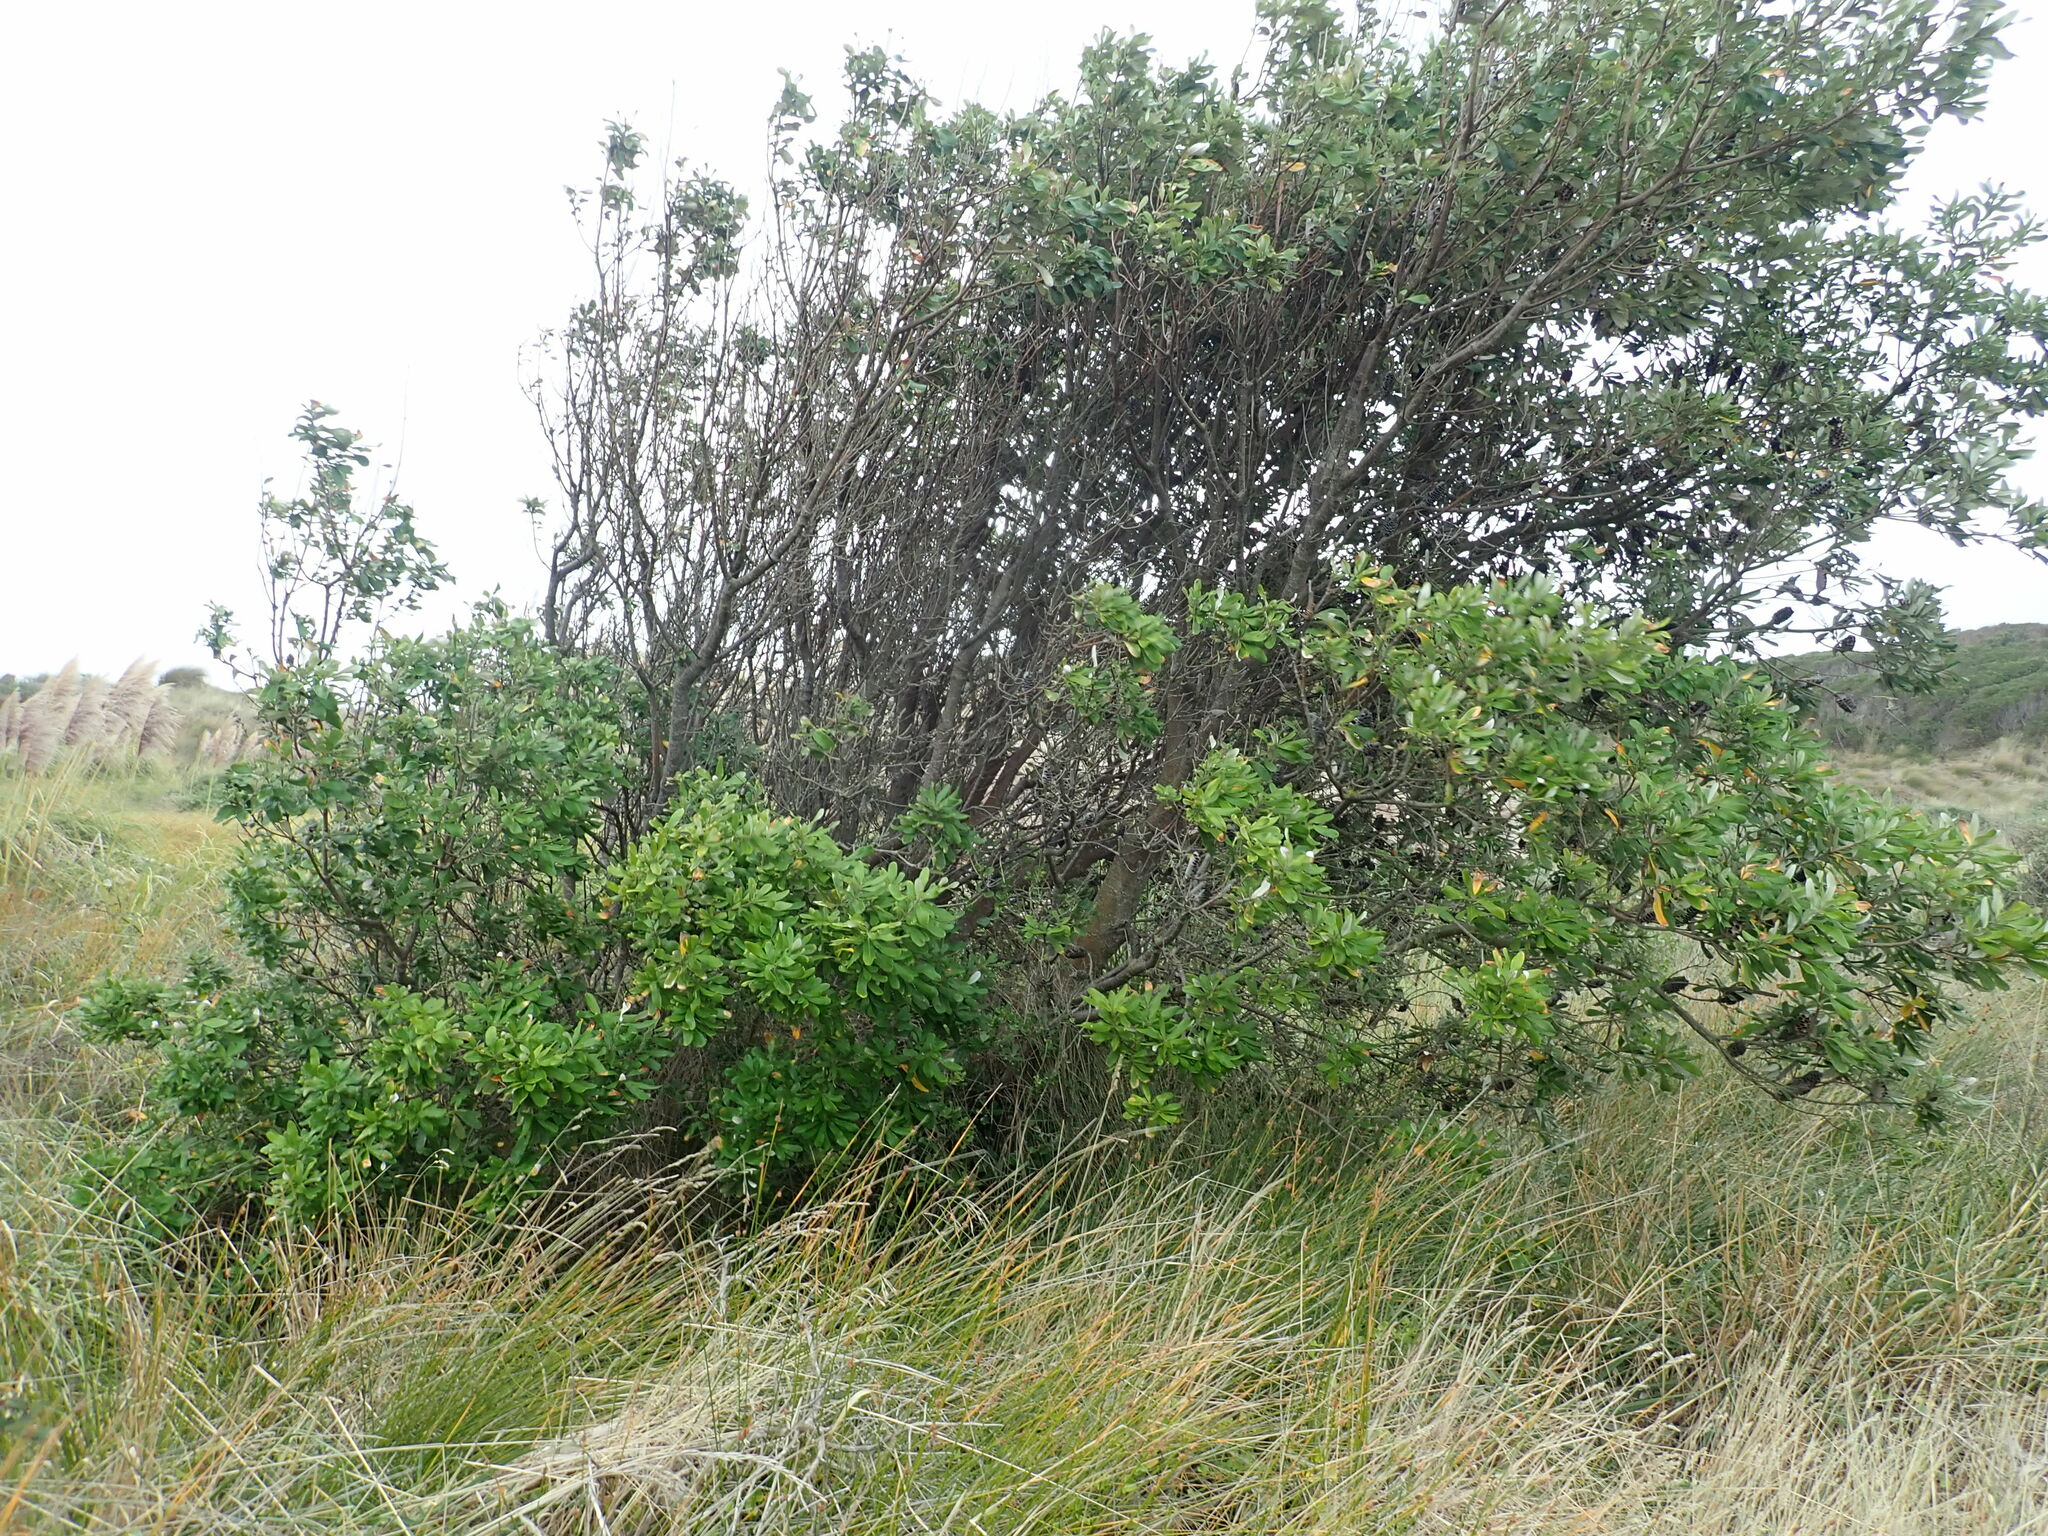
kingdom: Plantae
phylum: Tracheophyta
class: Magnoliopsida
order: Proteales
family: Proteaceae
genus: Banksia
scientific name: Banksia integrifolia
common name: White-honeysuckle
